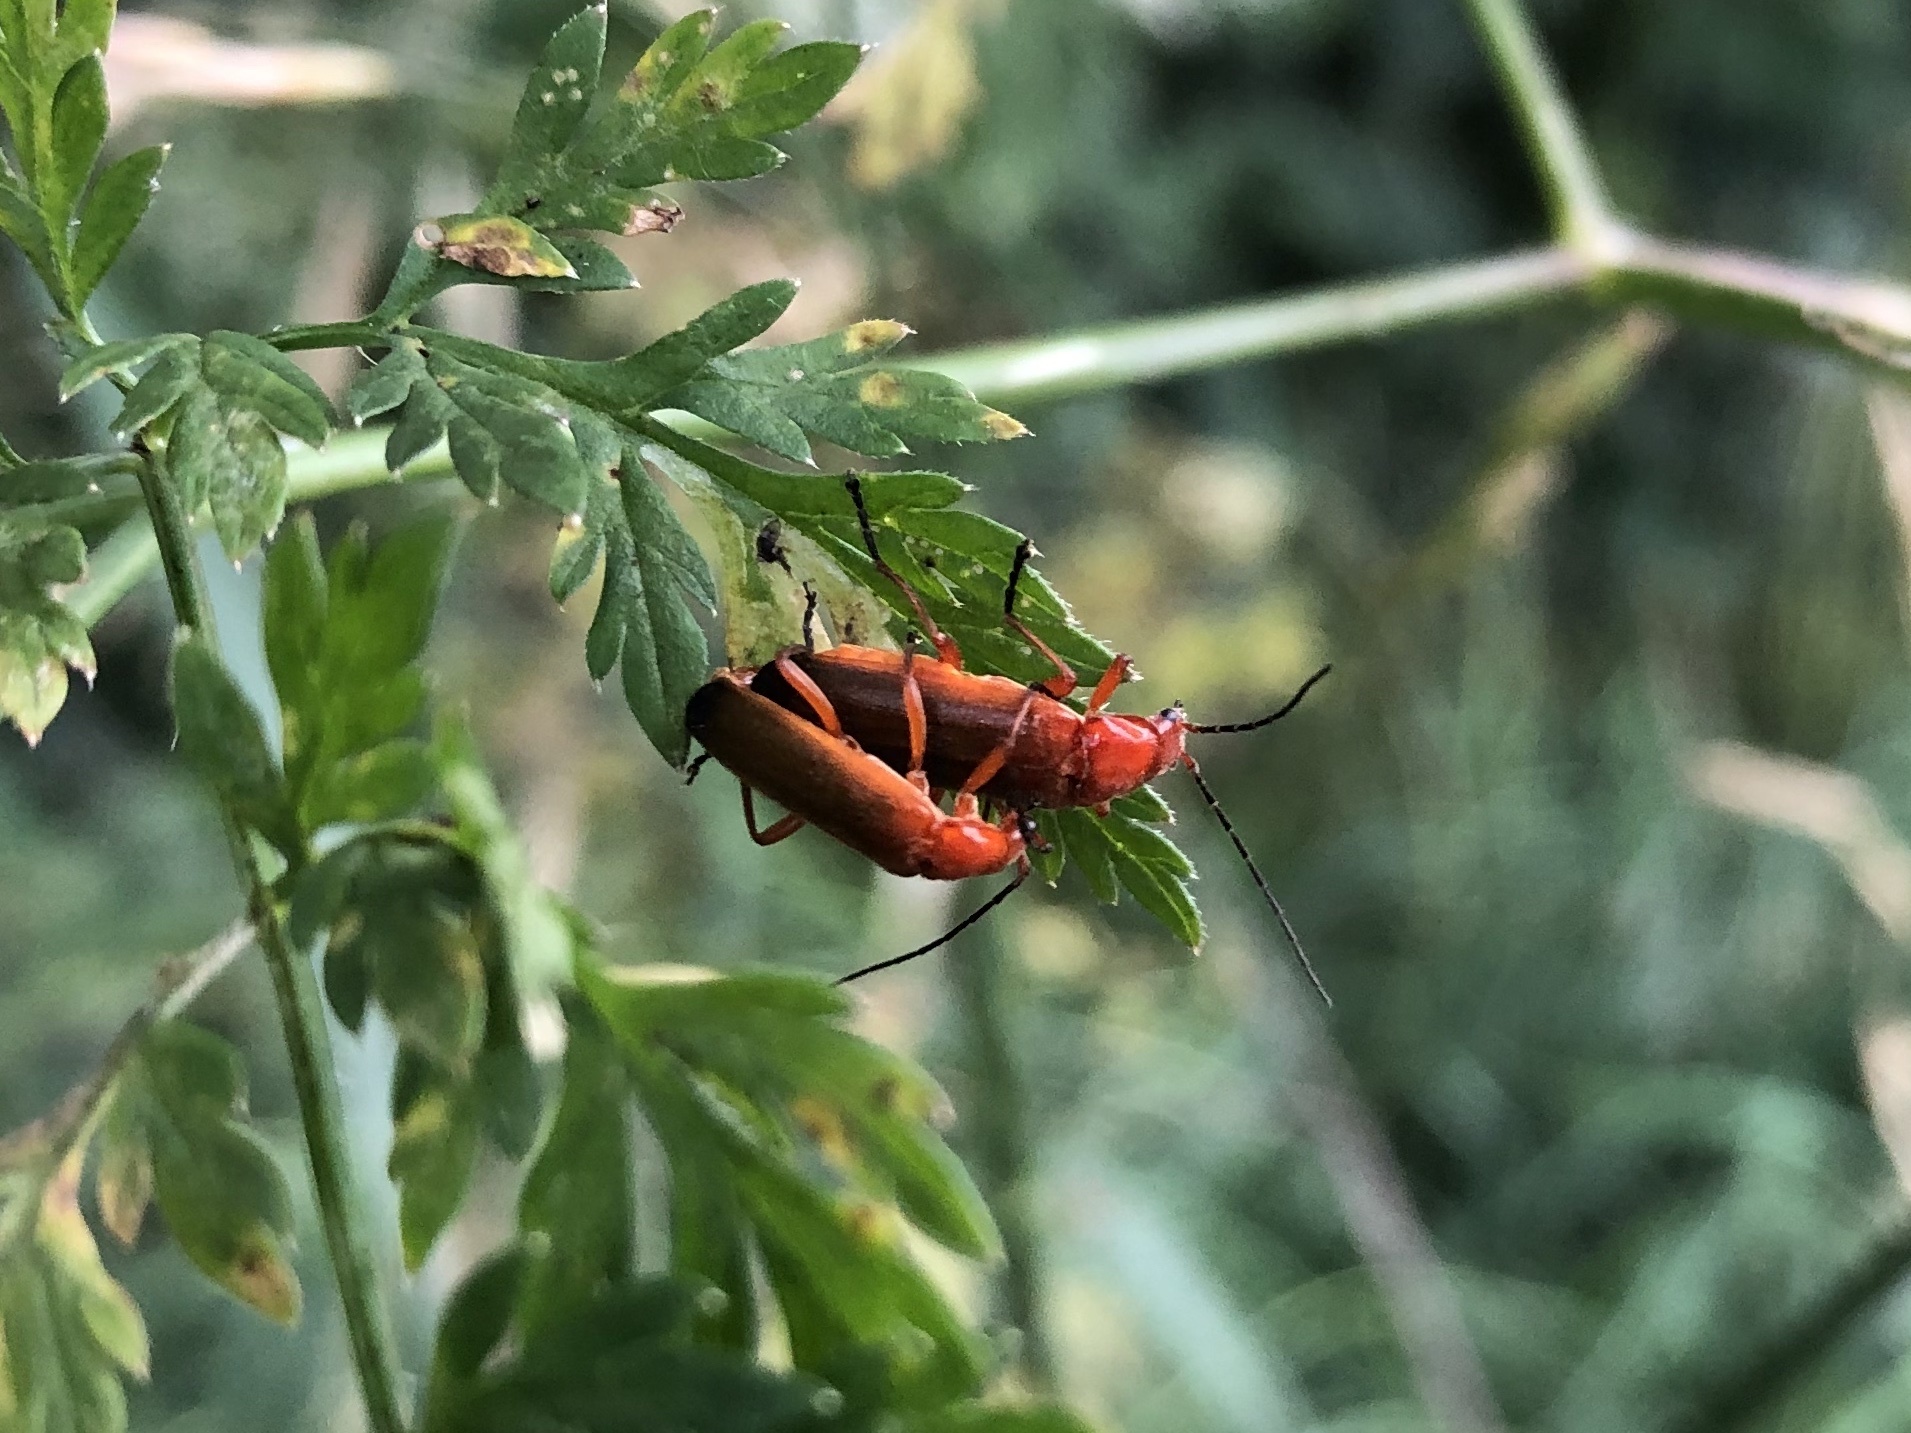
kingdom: Animalia
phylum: Arthropoda
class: Insecta
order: Coleoptera
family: Cantharidae
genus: Rhagonycha
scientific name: Rhagonycha fulva
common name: Common red soldier beetle
